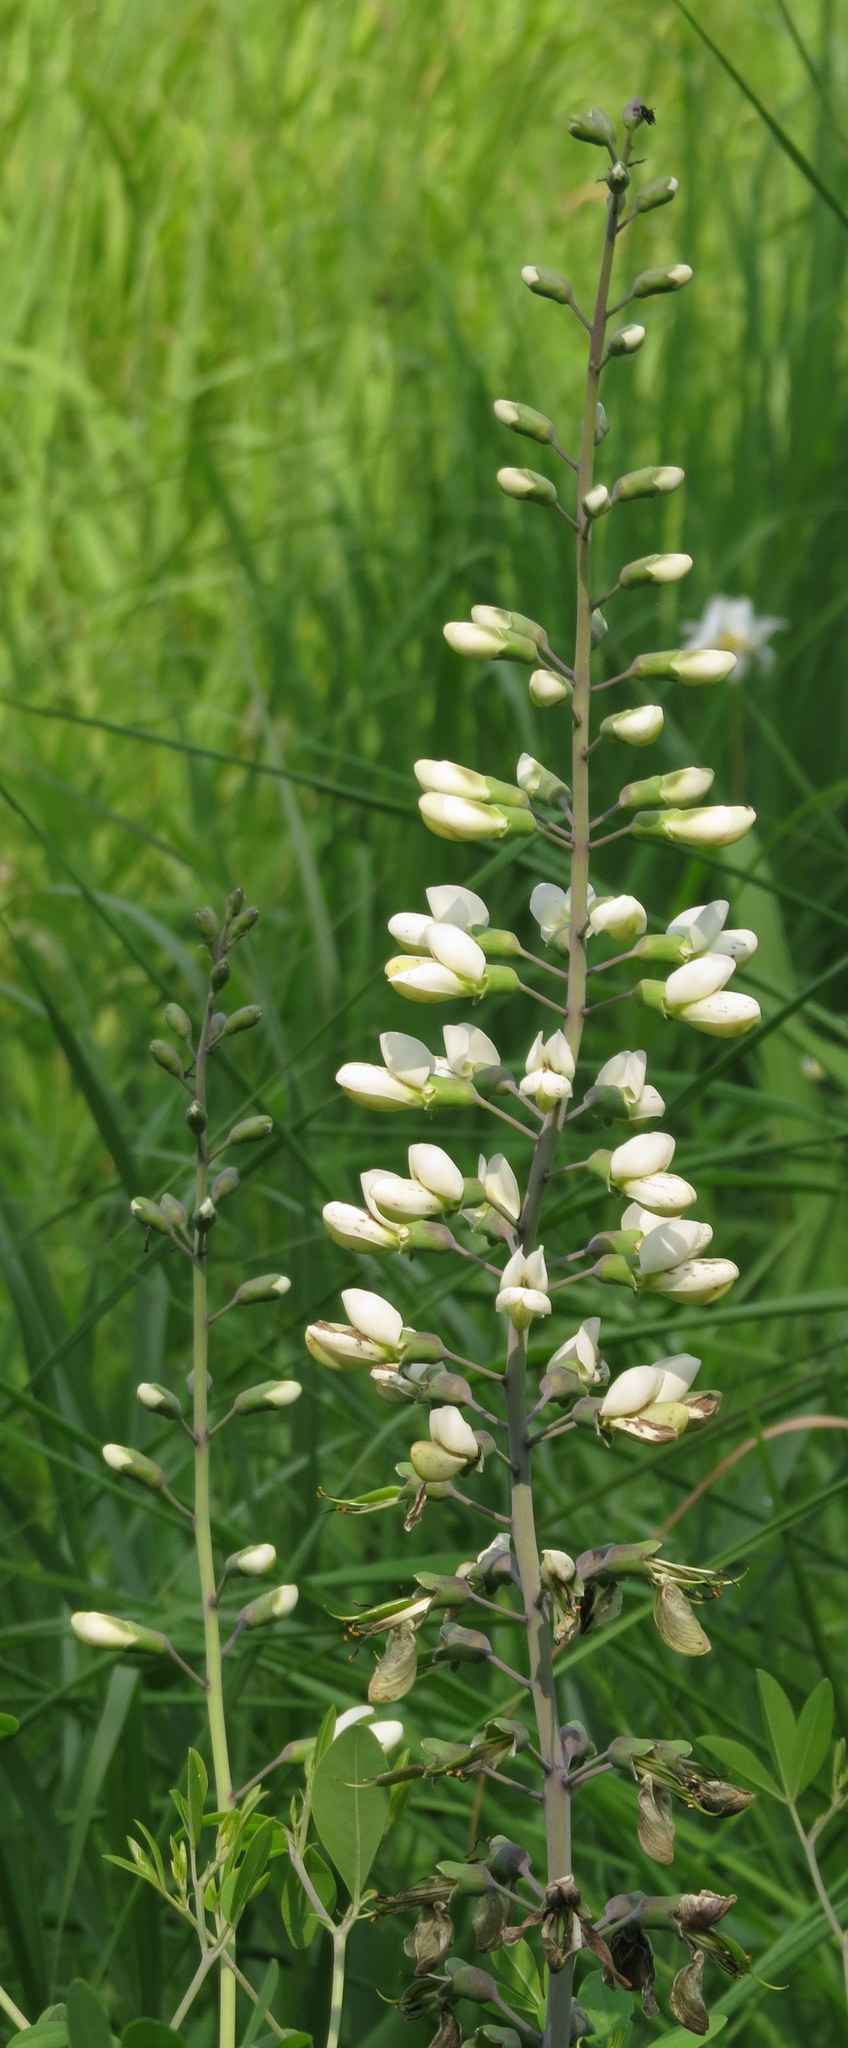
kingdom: Plantae
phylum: Tracheophyta
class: Magnoliopsida
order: Fabales
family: Fabaceae
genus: Baptisia
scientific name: Baptisia alba
